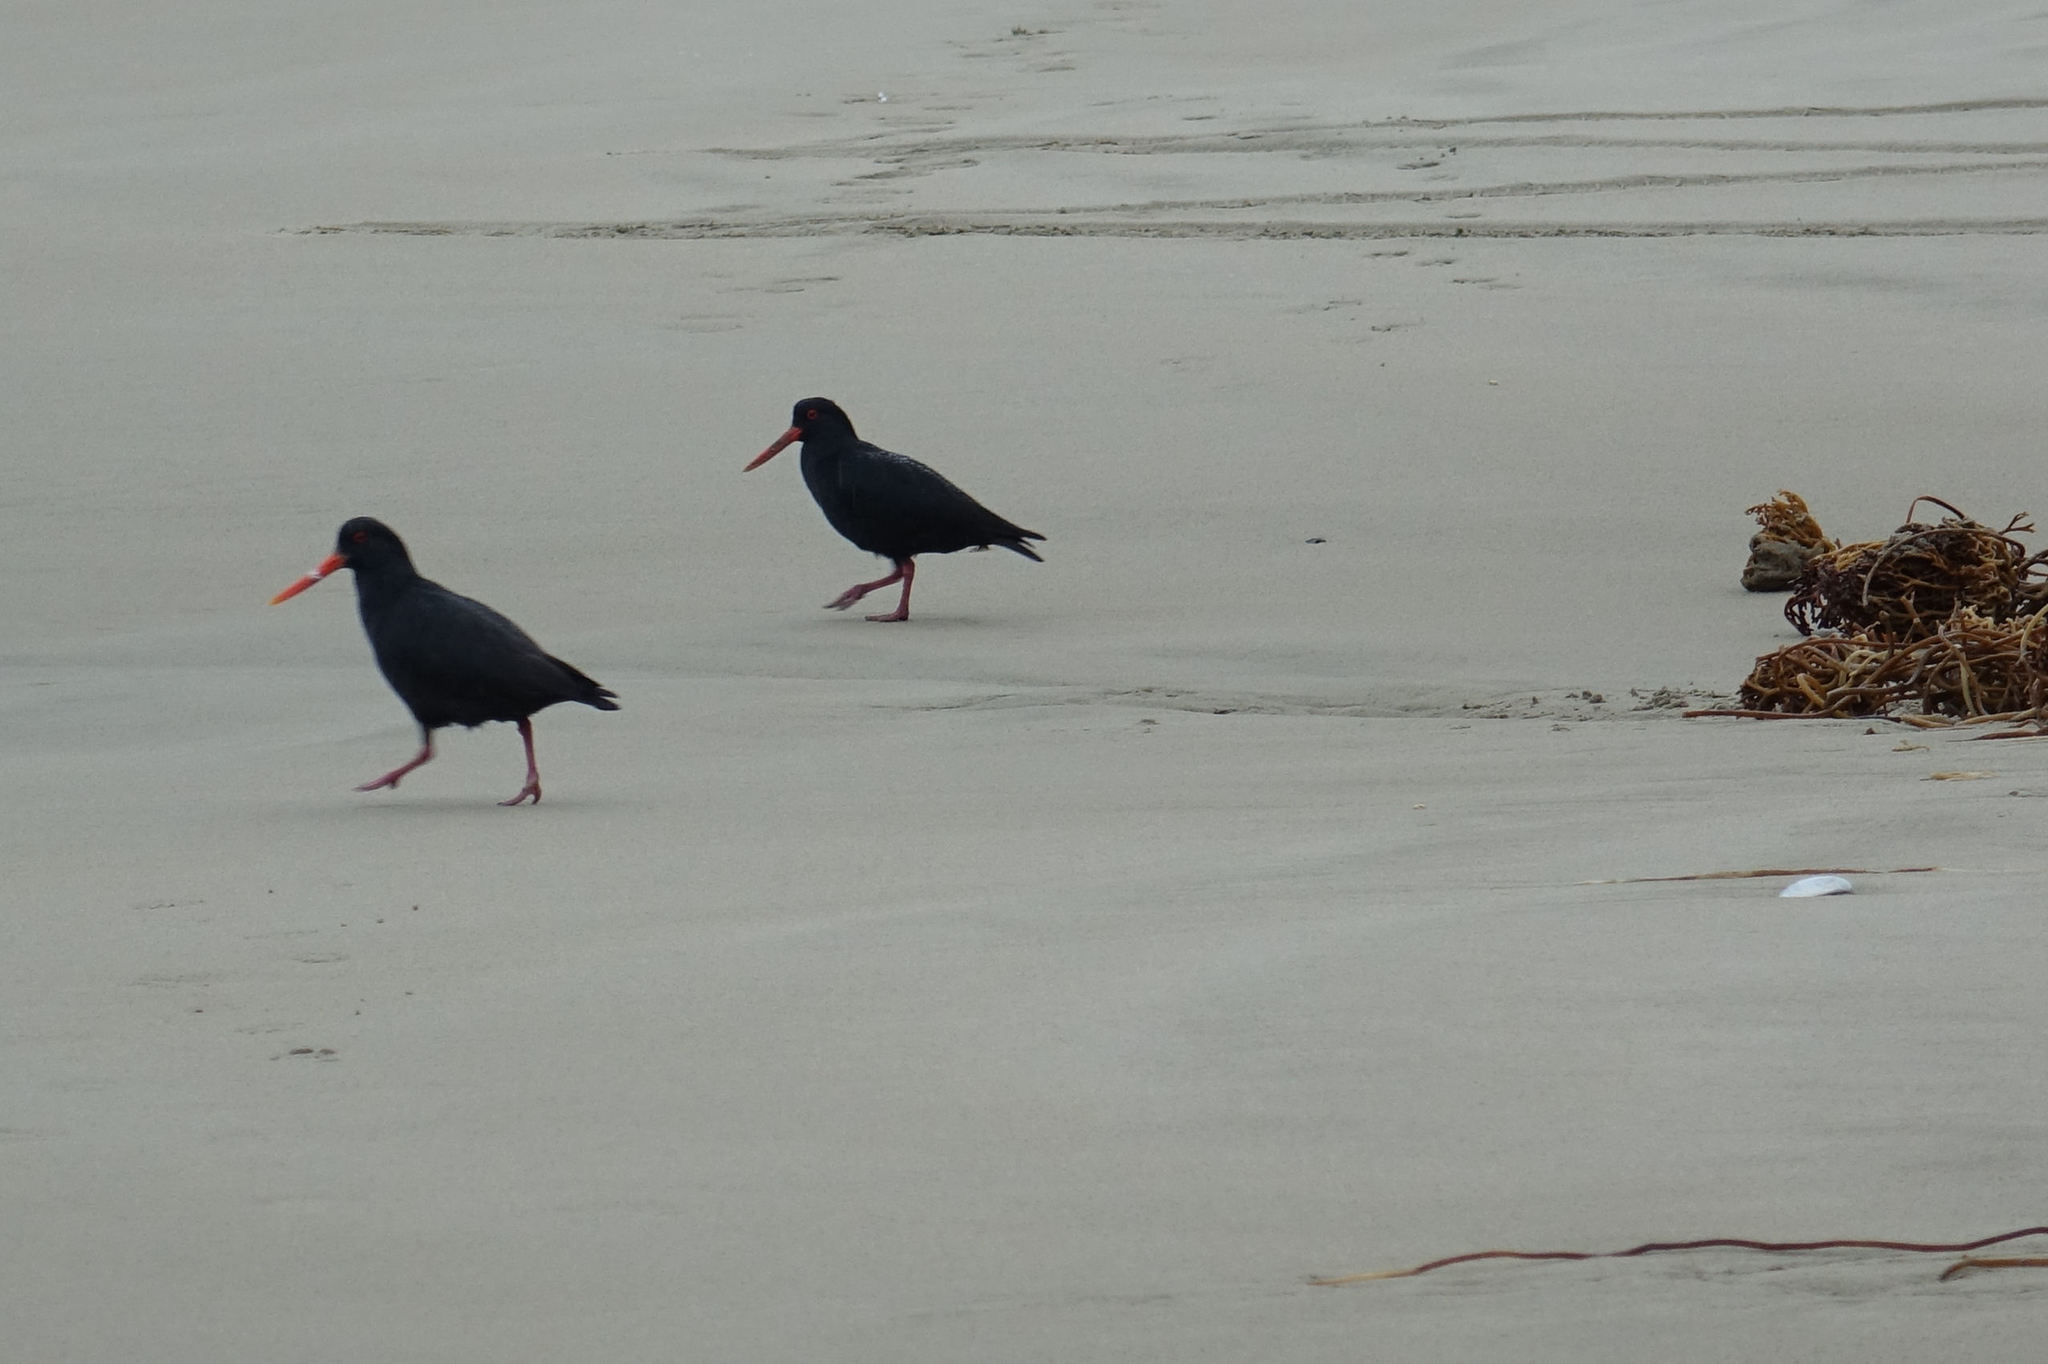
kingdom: Animalia
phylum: Chordata
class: Aves
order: Charadriiformes
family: Haematopodidae
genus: Haematopus
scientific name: Haematopus unicolor
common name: Variable oystercatcher
